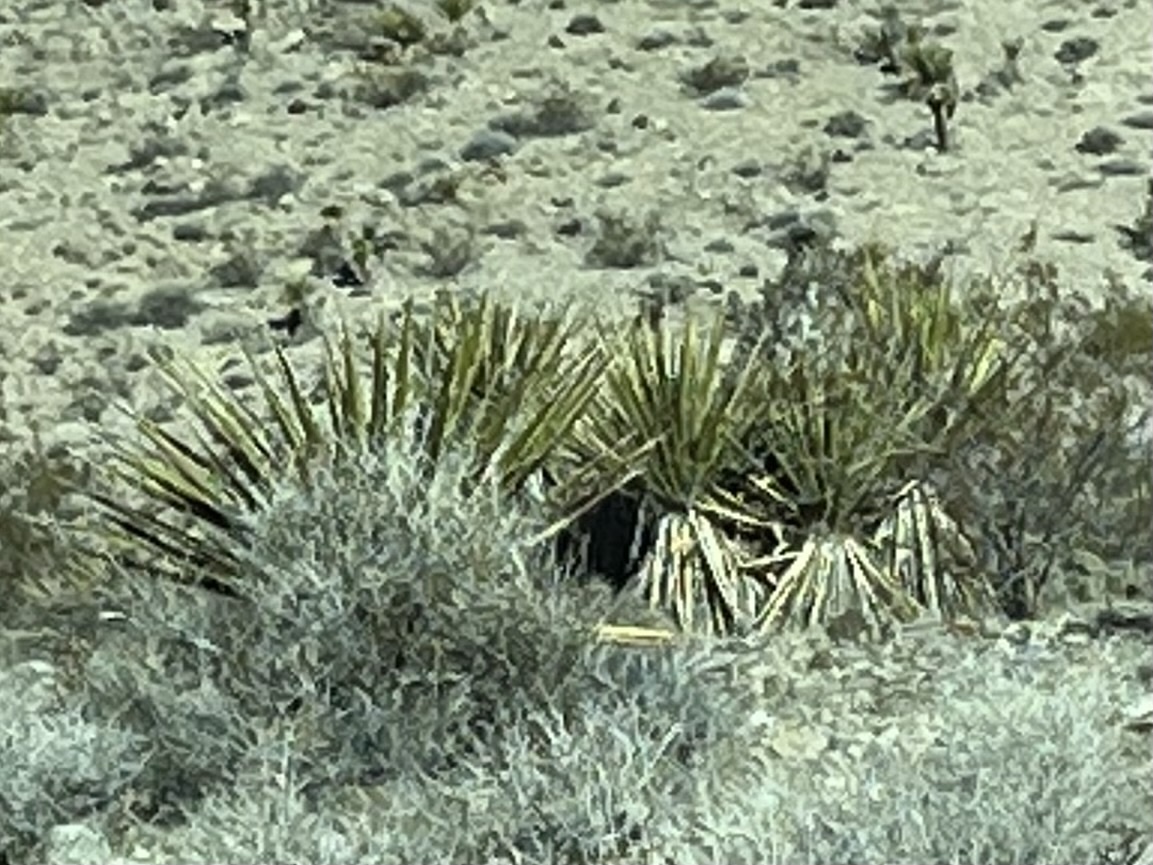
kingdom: Plantae
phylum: Tracheophyta
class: Liliopsida
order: Asparagales
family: Asparagaceae
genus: Yucca
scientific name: Yucca schidigera
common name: Mojave yucca
